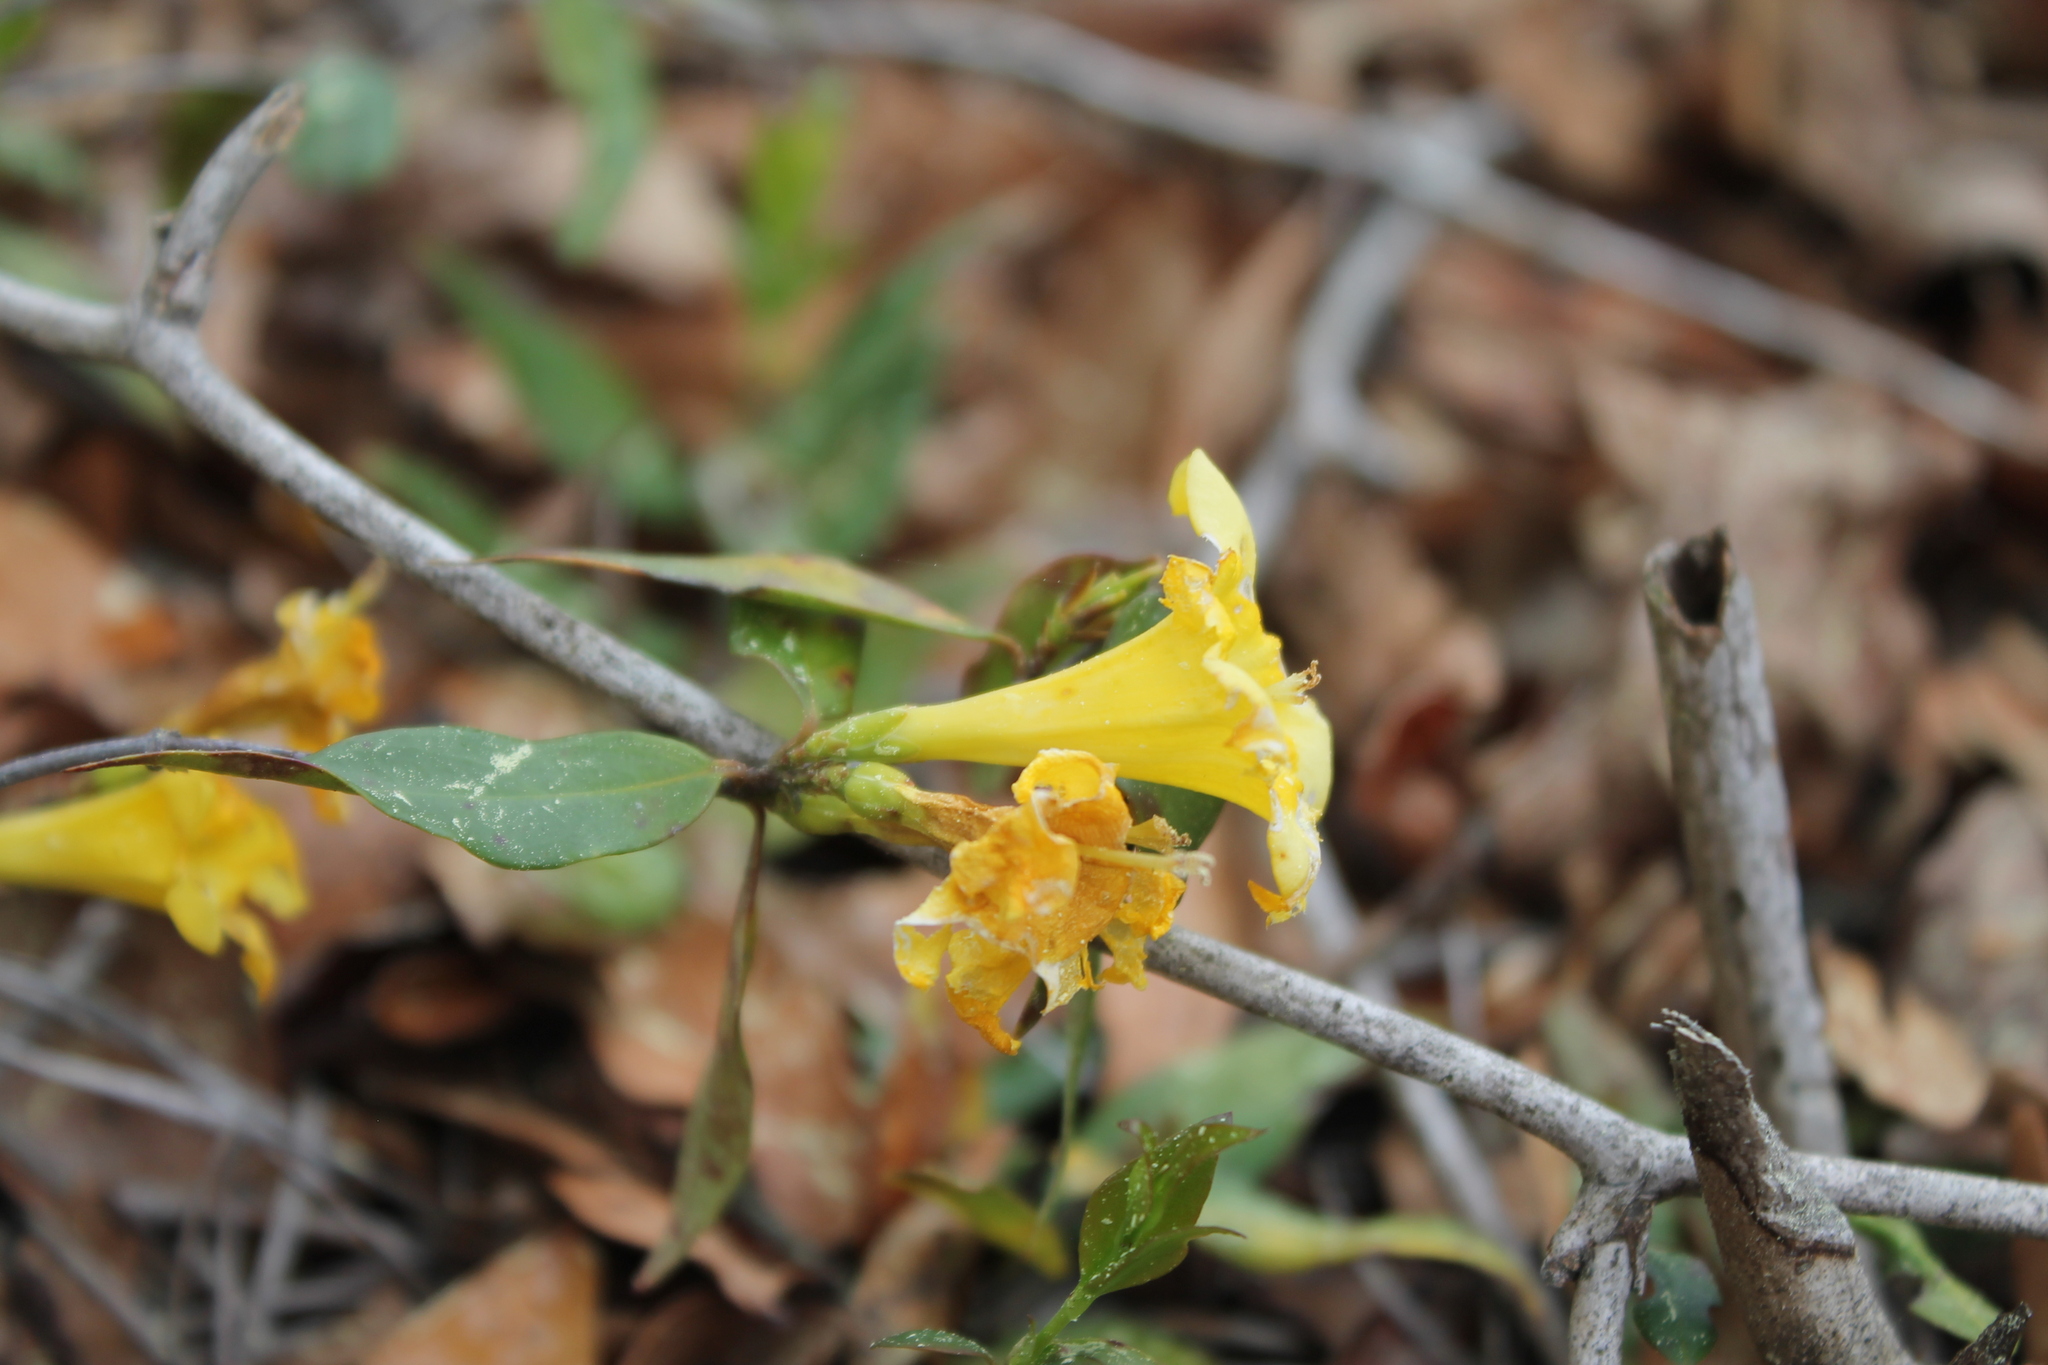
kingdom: Plantae
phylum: Tracheophyta
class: Magnoliopsida
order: Gentianales
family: Gelsemiaceae
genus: Gelsemium
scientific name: Gelsemium sempervirens
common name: Carolina-jasmine
